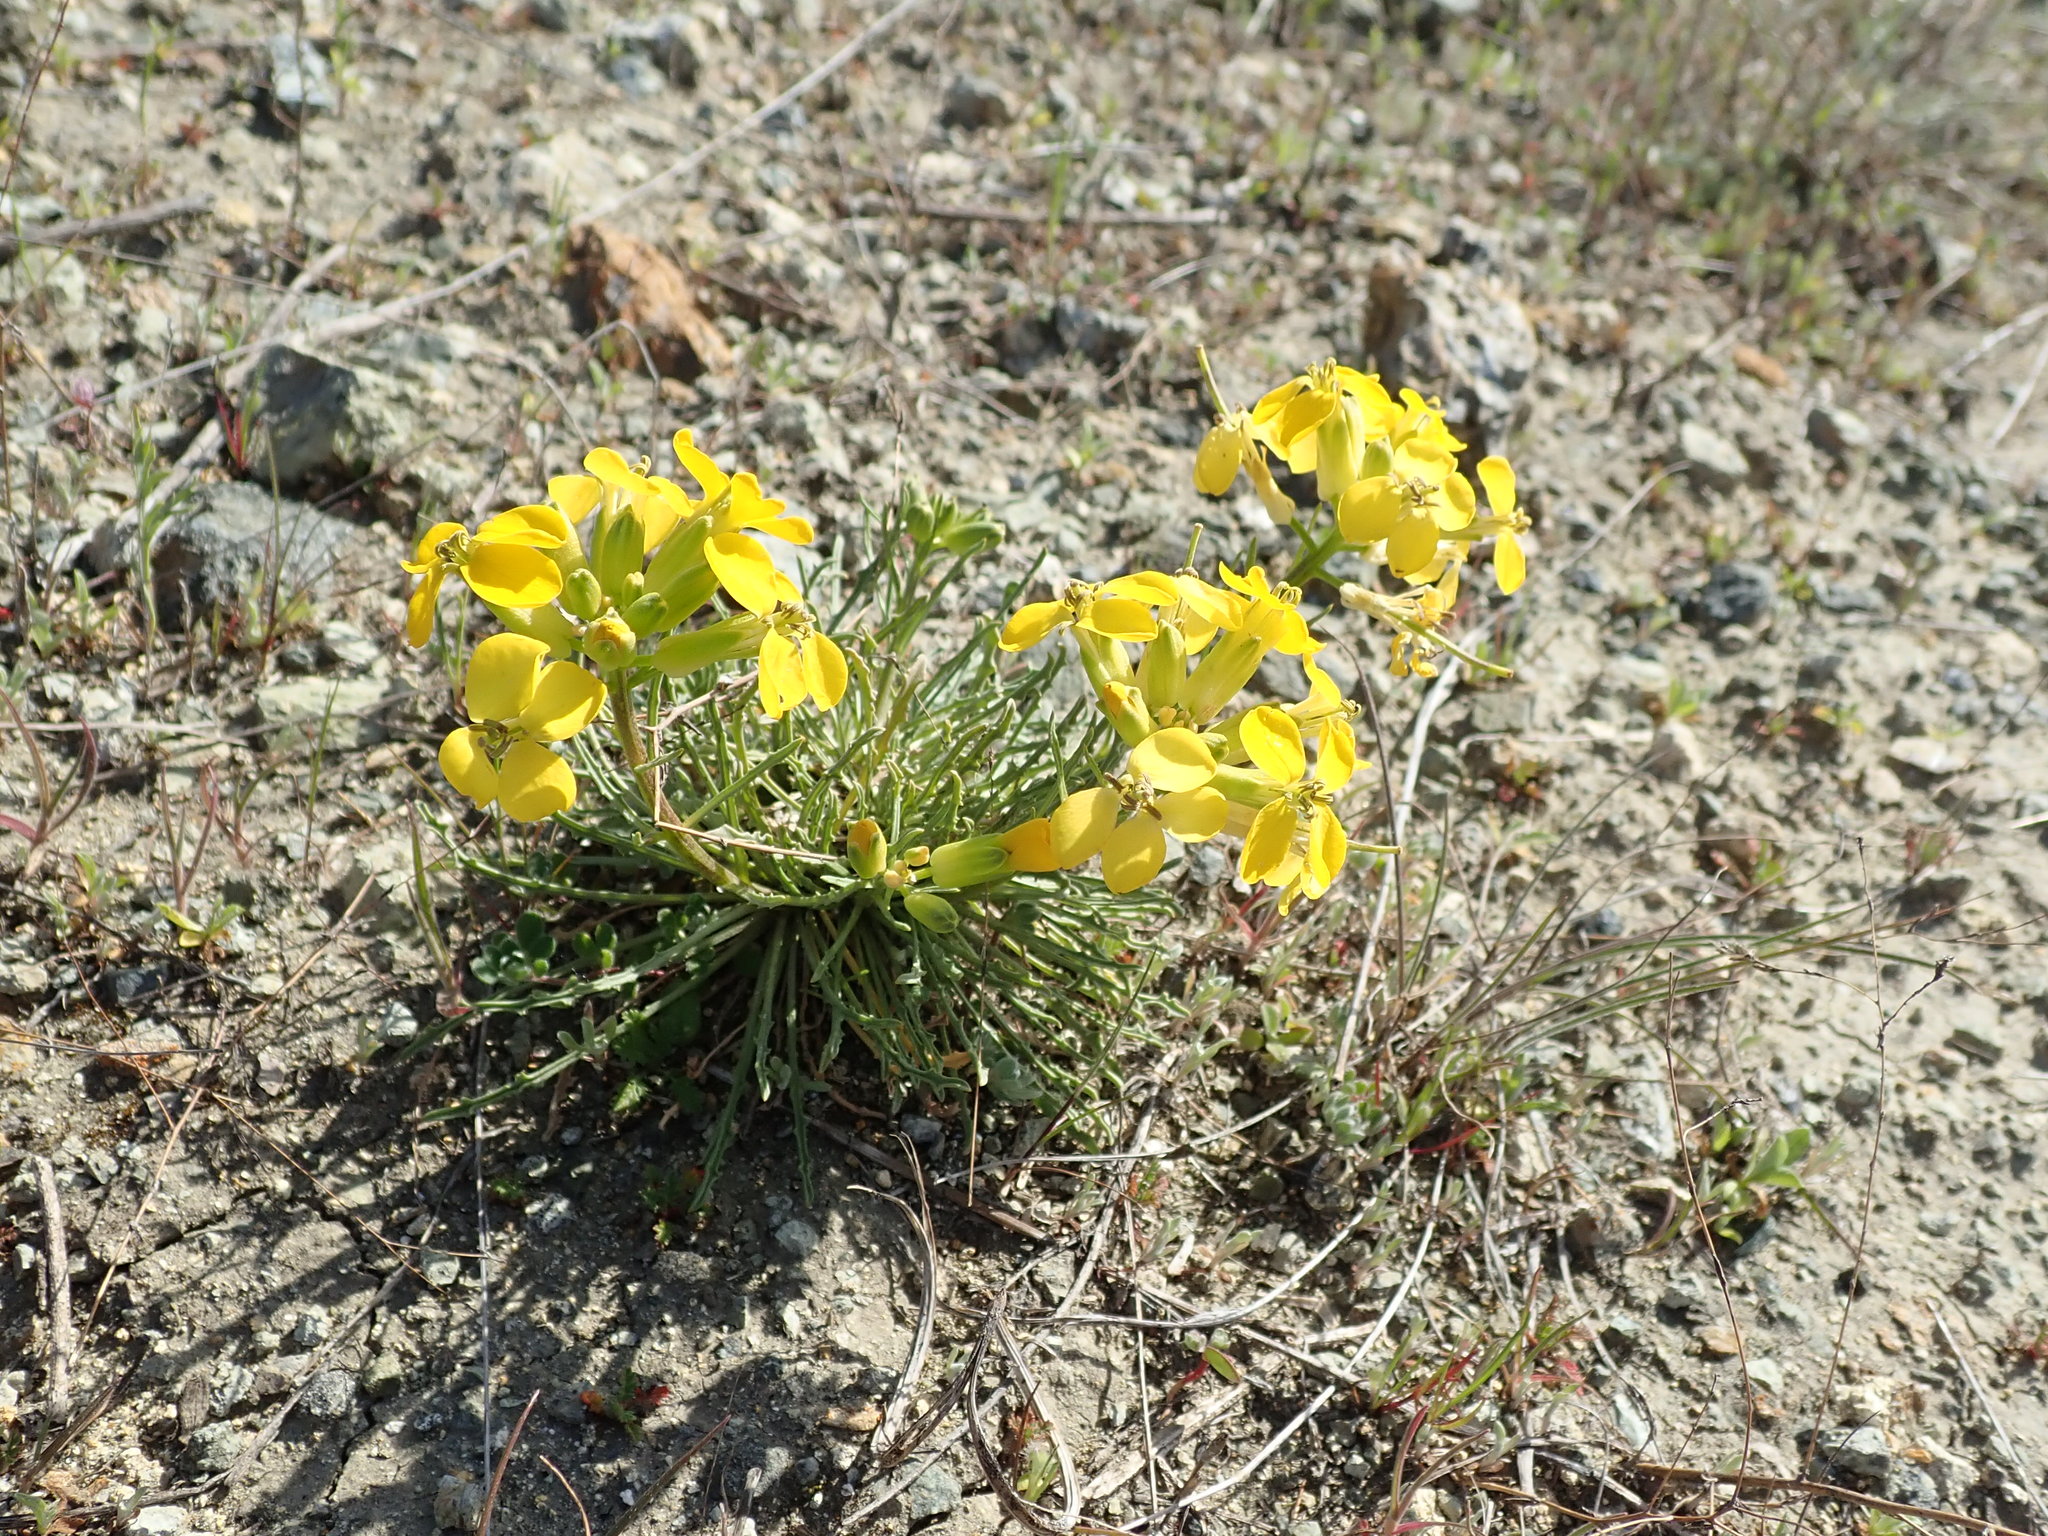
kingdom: Plantae
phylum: Tracheophyta
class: Magnoliopsida
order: Brassicales
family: Brassicaceae
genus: Erysimum
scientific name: Erysimum franciscanum
